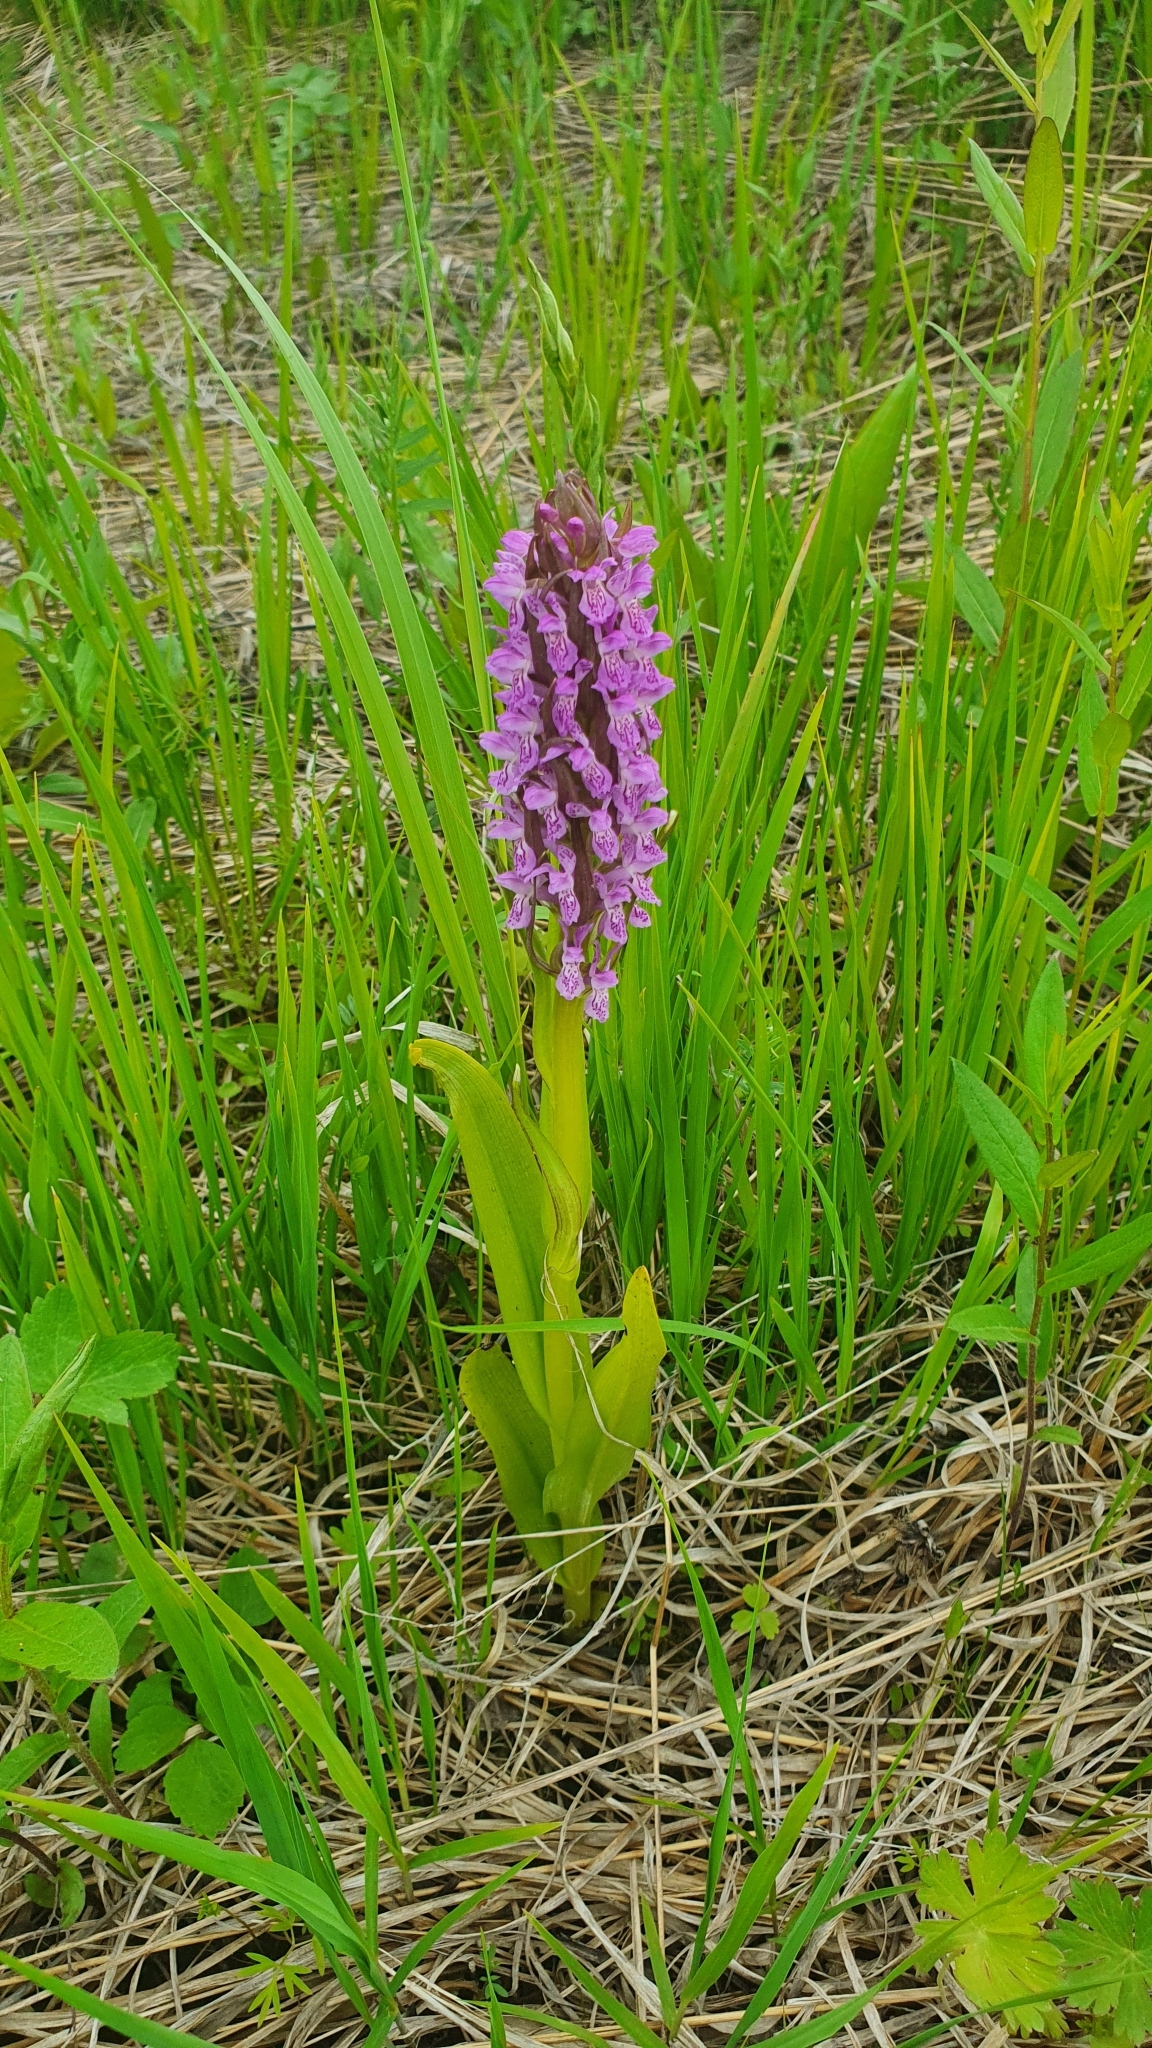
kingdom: Plantae
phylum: Tracheophyta
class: Liliopsida
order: Asparagales
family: Orchidaceae
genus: Dactylorhiza
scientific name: Dactylorhiza incarnata
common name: Early marsh-orchid
